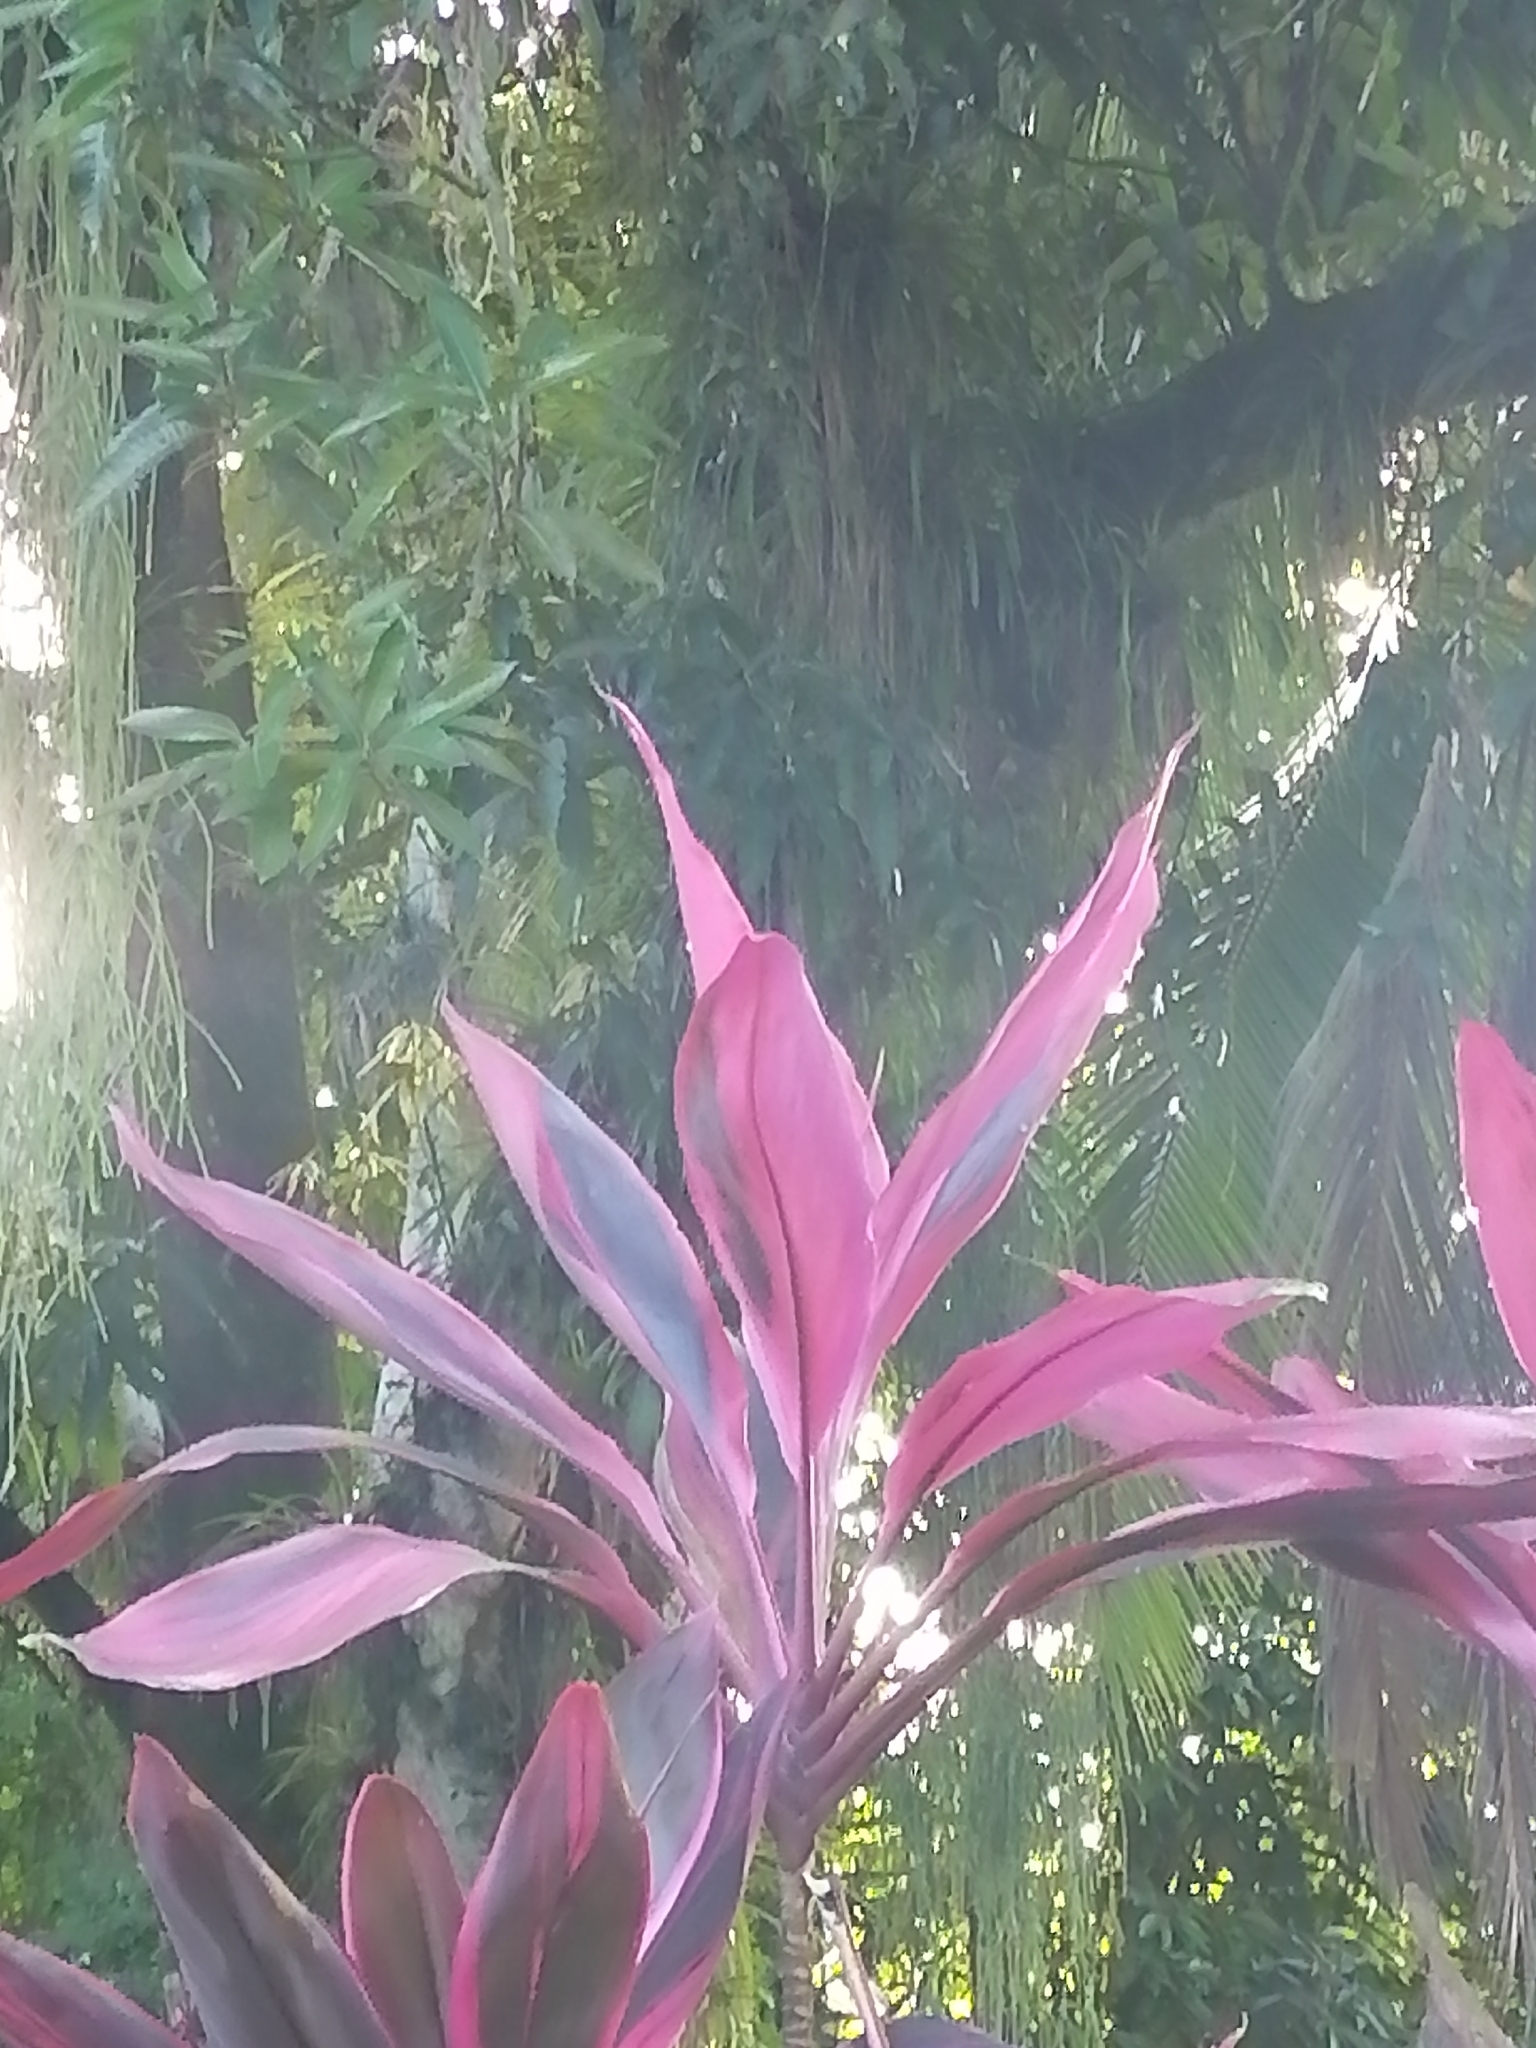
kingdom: Plantae
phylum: Tracheophyta
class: Liliopsida
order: Asparagales
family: Asparagaceae
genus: Cordyline
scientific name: Cordyline fruticosa
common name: Good-luck-plant
